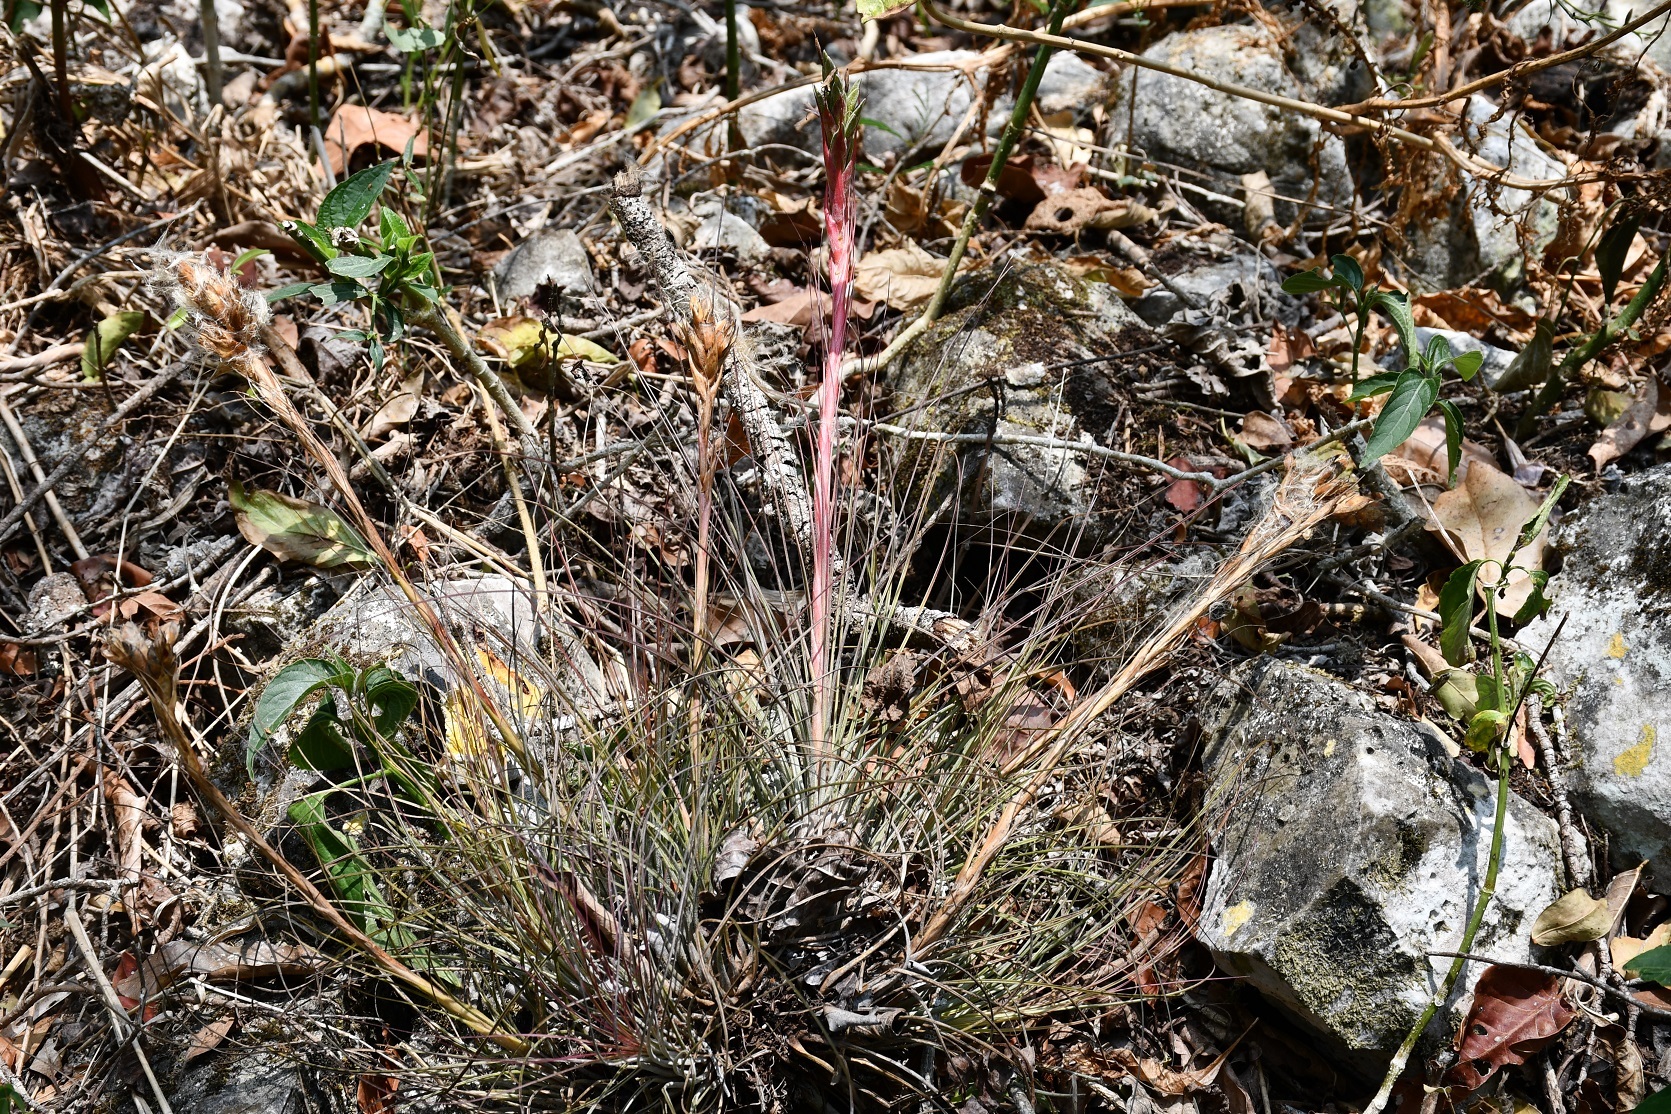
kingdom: Plantae
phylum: Tracheophyta
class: Liliopsida
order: Poales
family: Bromeliaceae
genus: Tillandsia
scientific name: Tillandsia juncea
